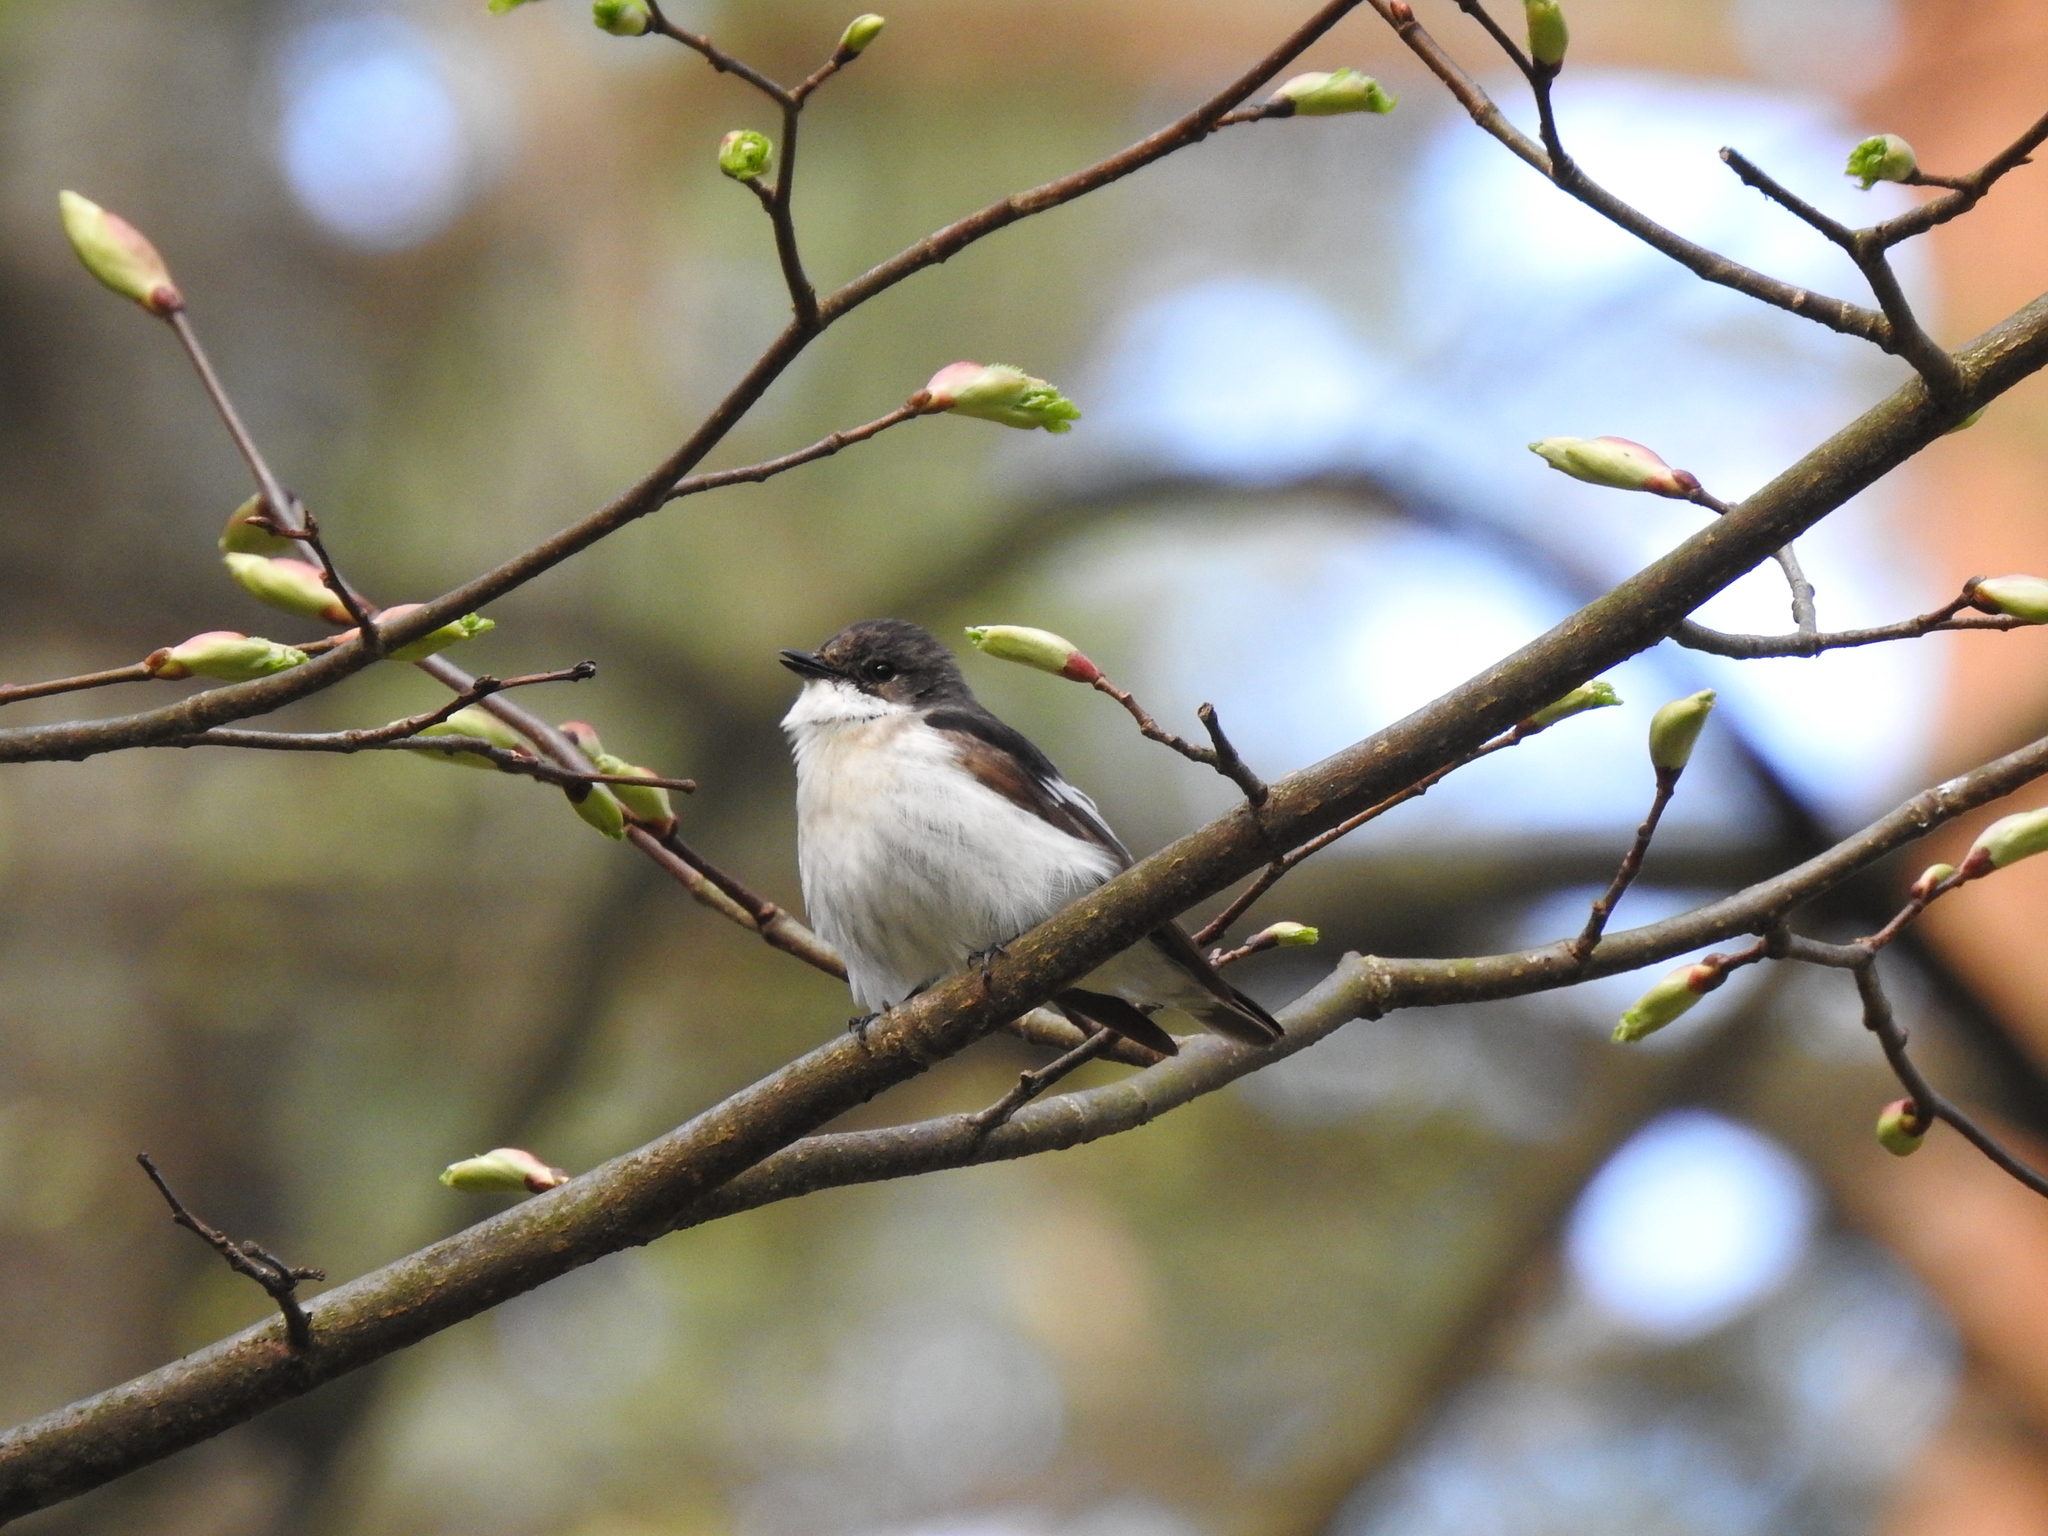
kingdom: Animalia
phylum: Chordata
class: Aves
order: Passeriformes
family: Muscicapidae
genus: Ficedula
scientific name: Ficedula hypoleuca
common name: European pied flycatcher
